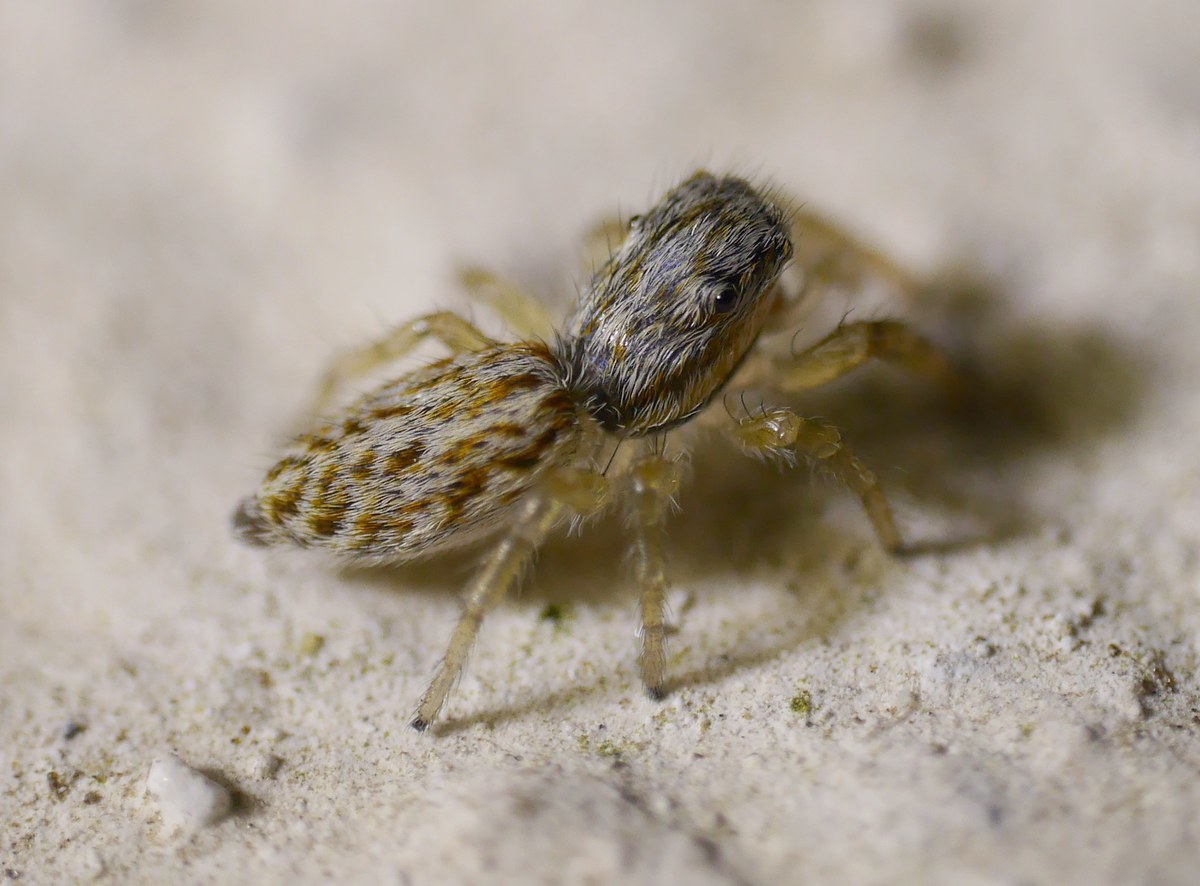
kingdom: Animalia
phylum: Arthropoda
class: Arachnida
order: Araneae
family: Salticidae
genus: Pseudicius
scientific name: Pseudicius encarpatus
